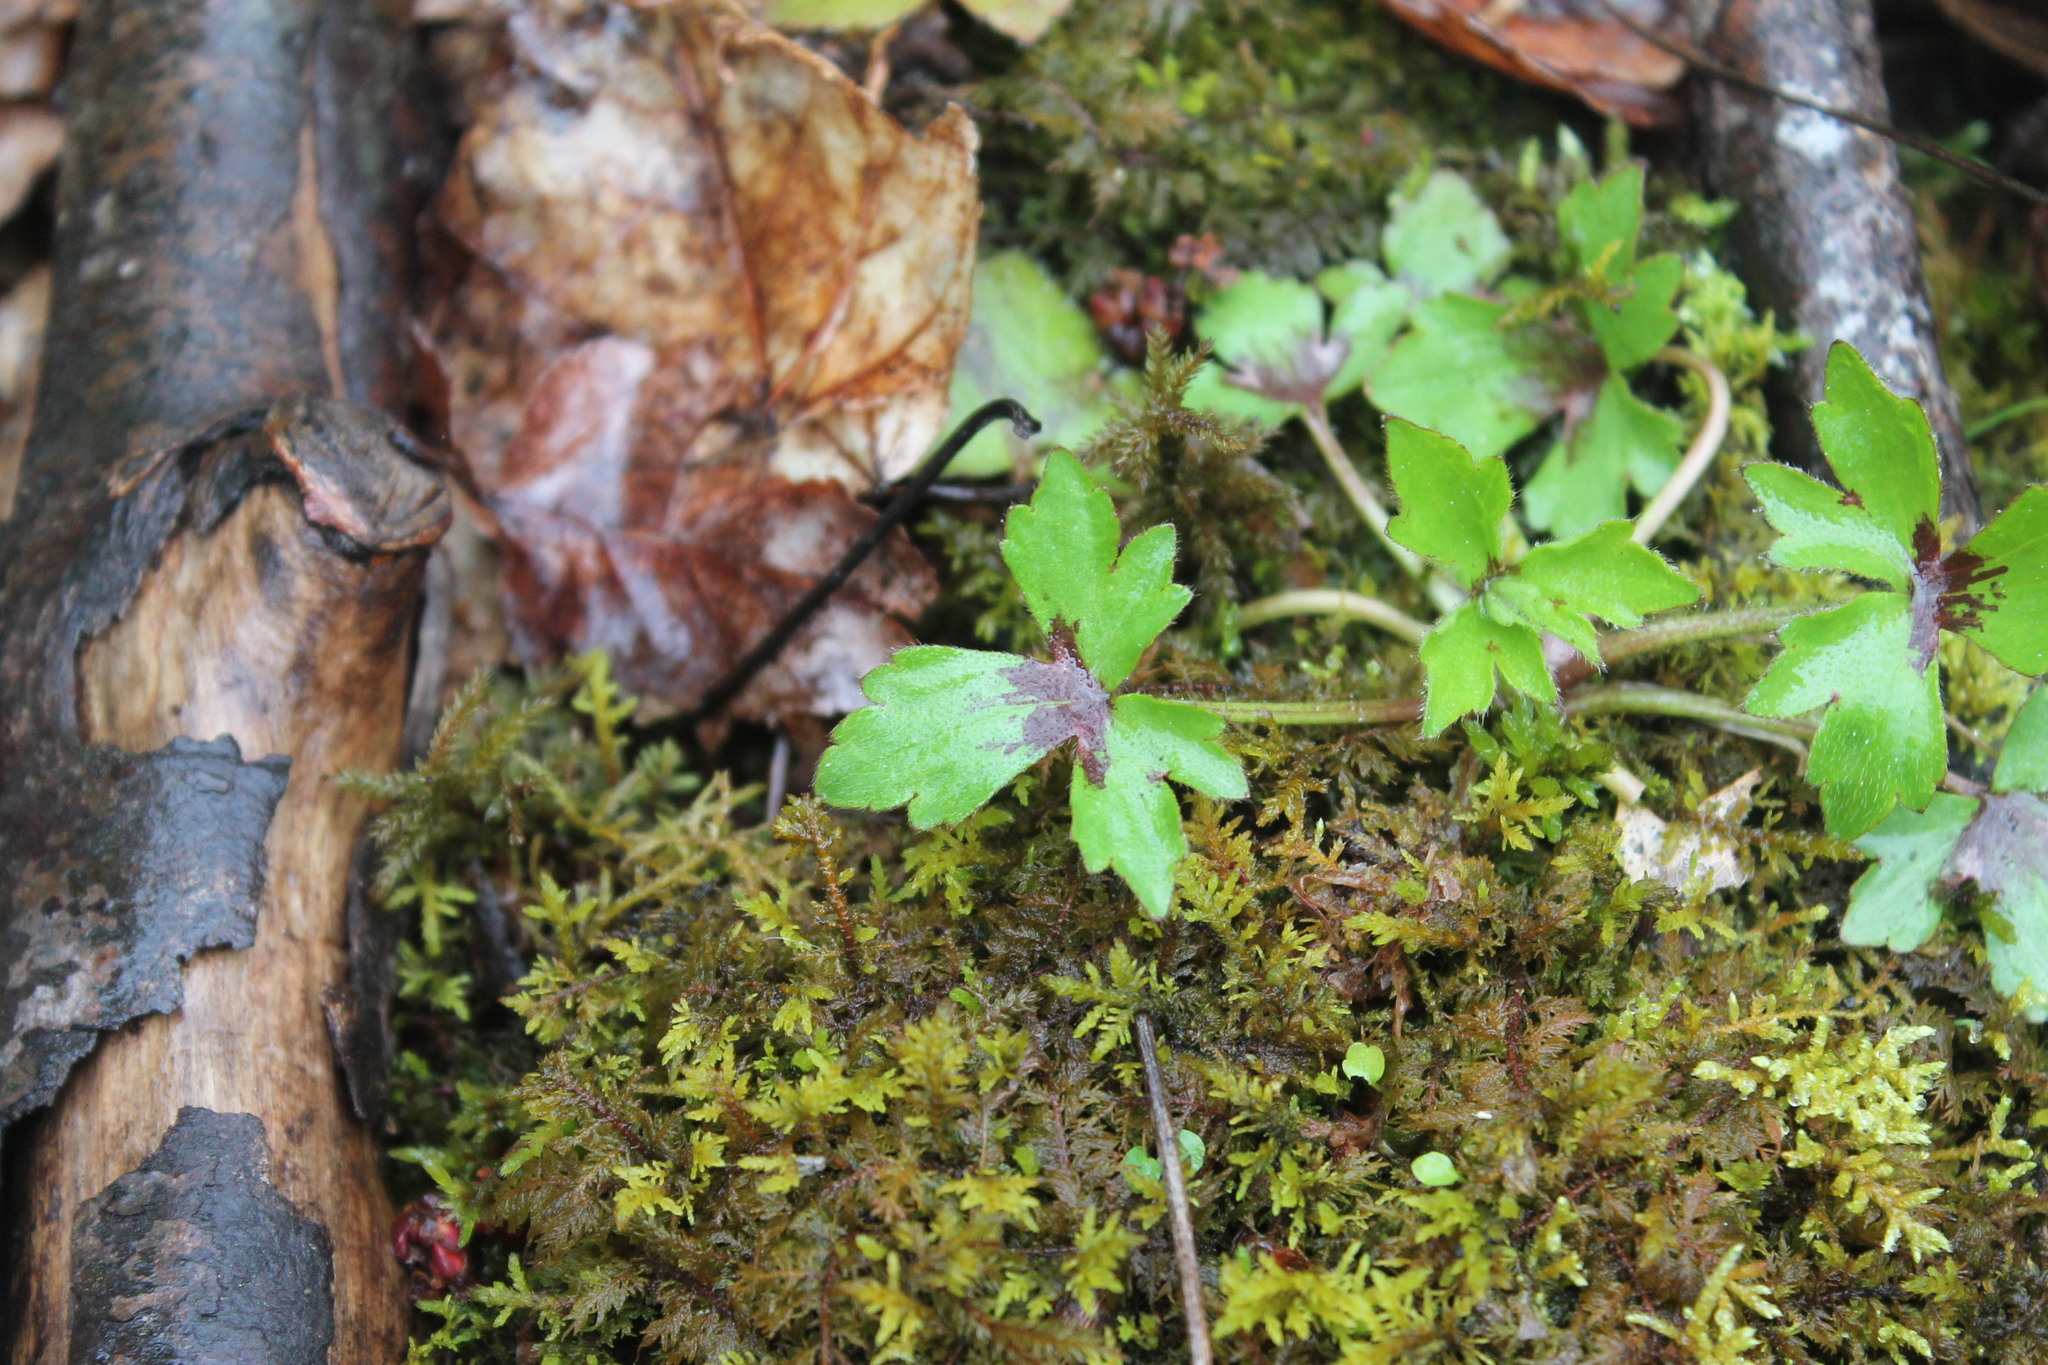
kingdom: Plantae
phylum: Tracheophyta
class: Magnoliopsida
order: Ranunculales
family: Ranunculaceae
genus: Ranunculus
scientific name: Ranunculus recurvatus
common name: Blisterwort
